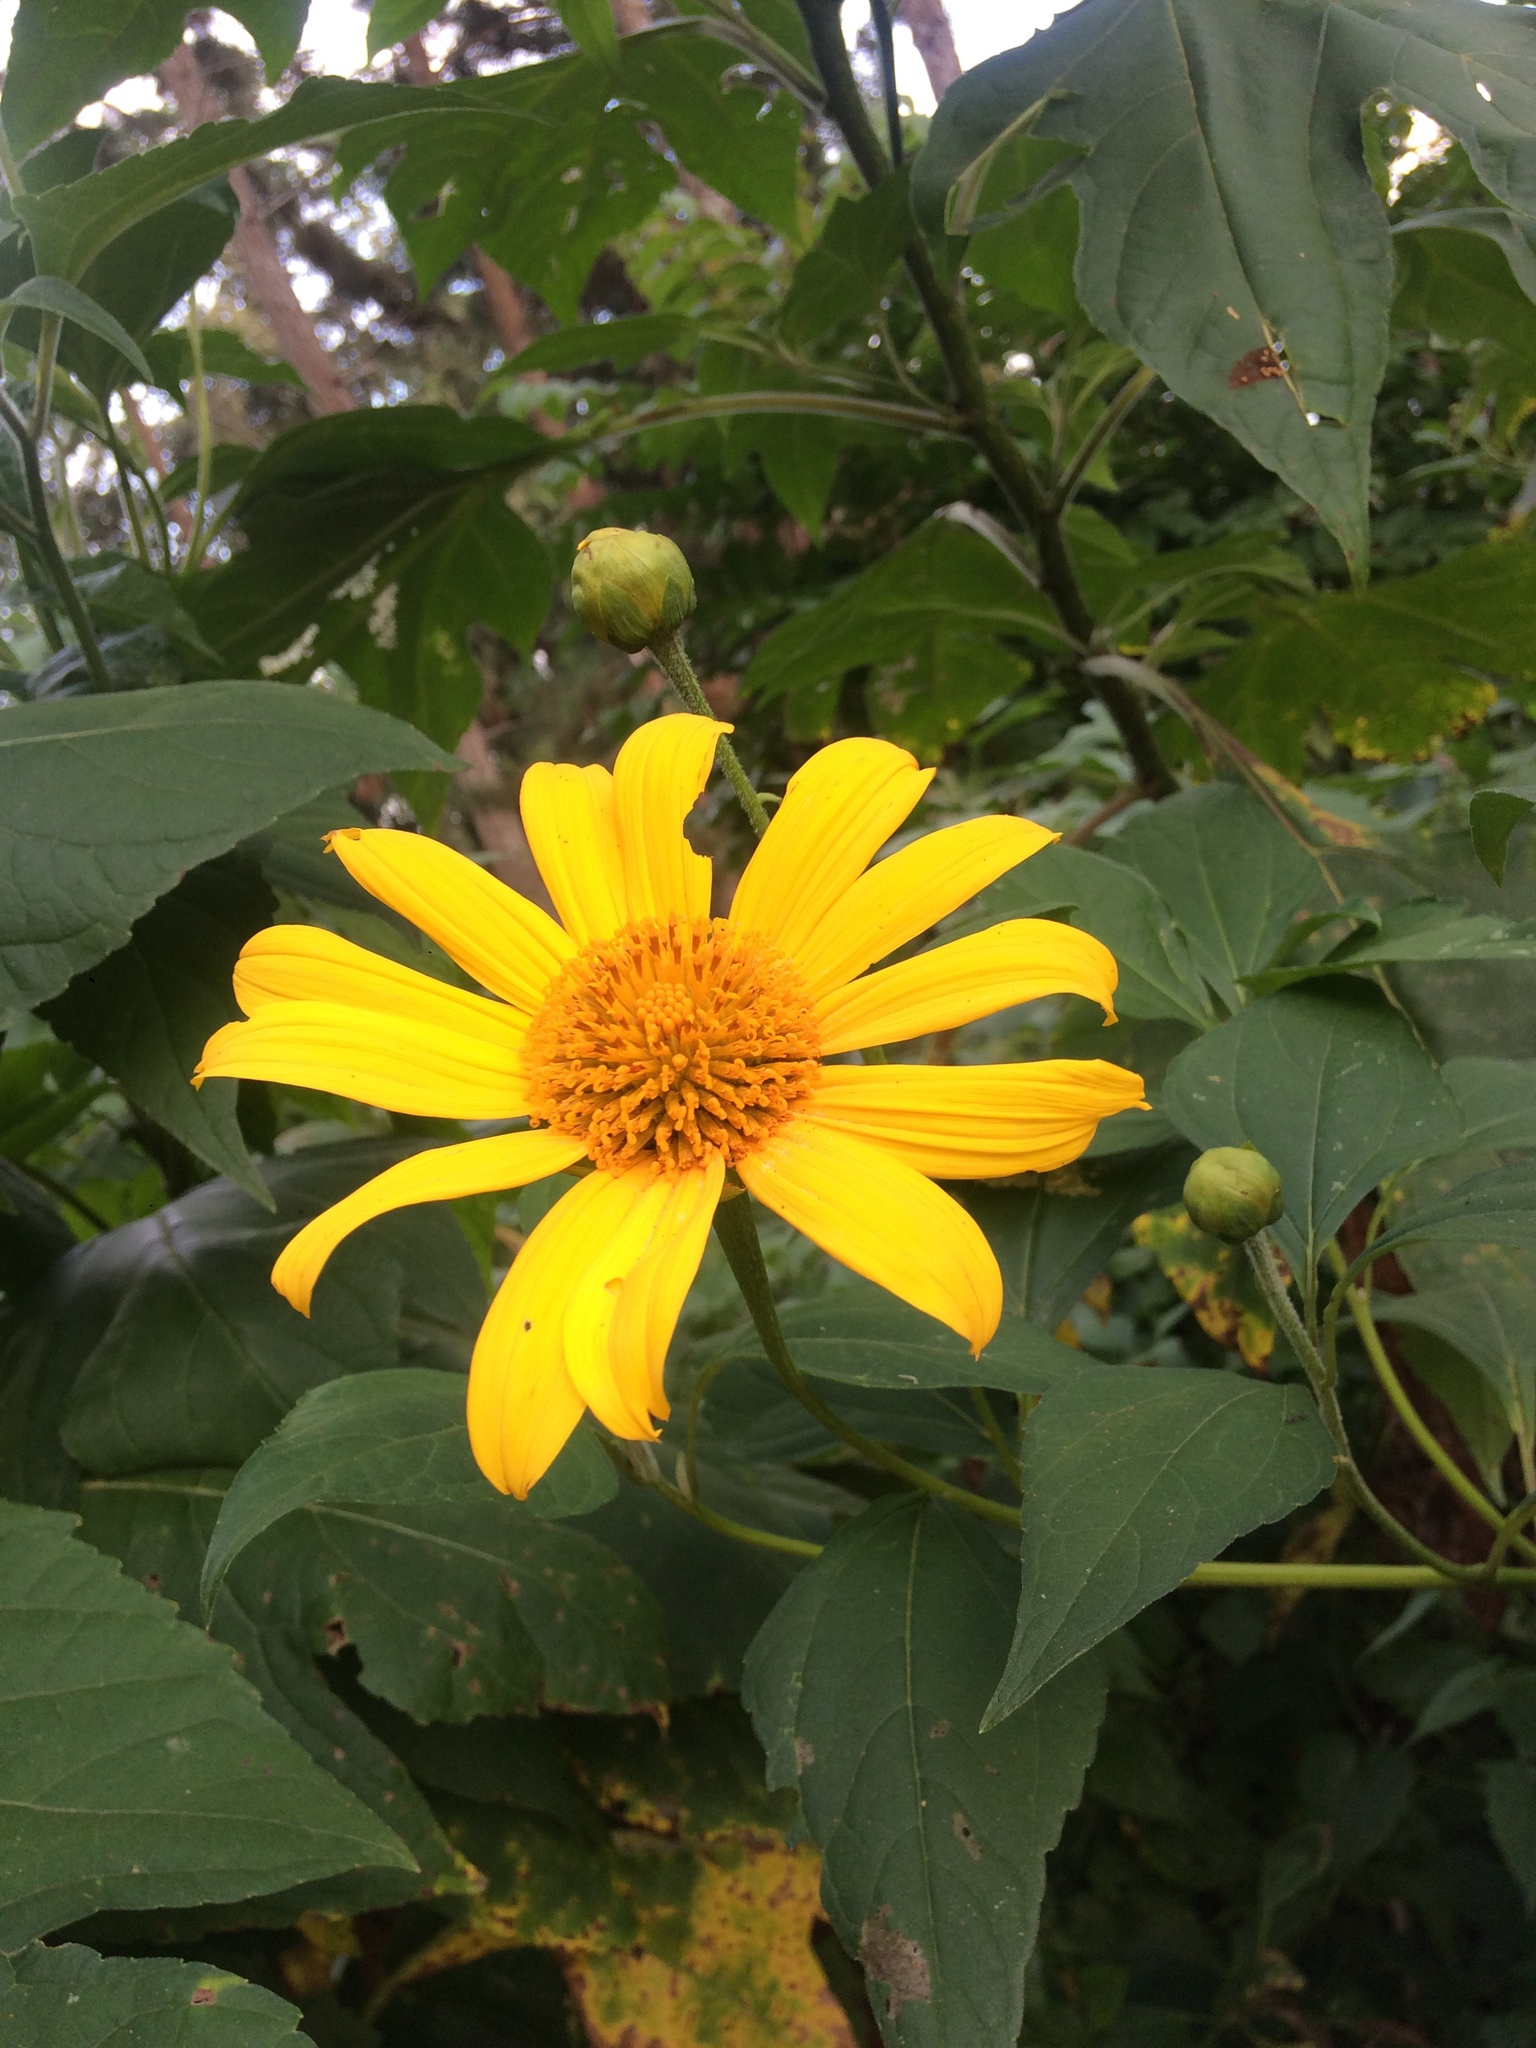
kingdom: Plantae
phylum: Tracheophyta
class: Magnoliopsida
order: Asterales
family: Asteraceae
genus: Tithonia
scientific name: Tithonia diversifolia
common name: Tree marigold
